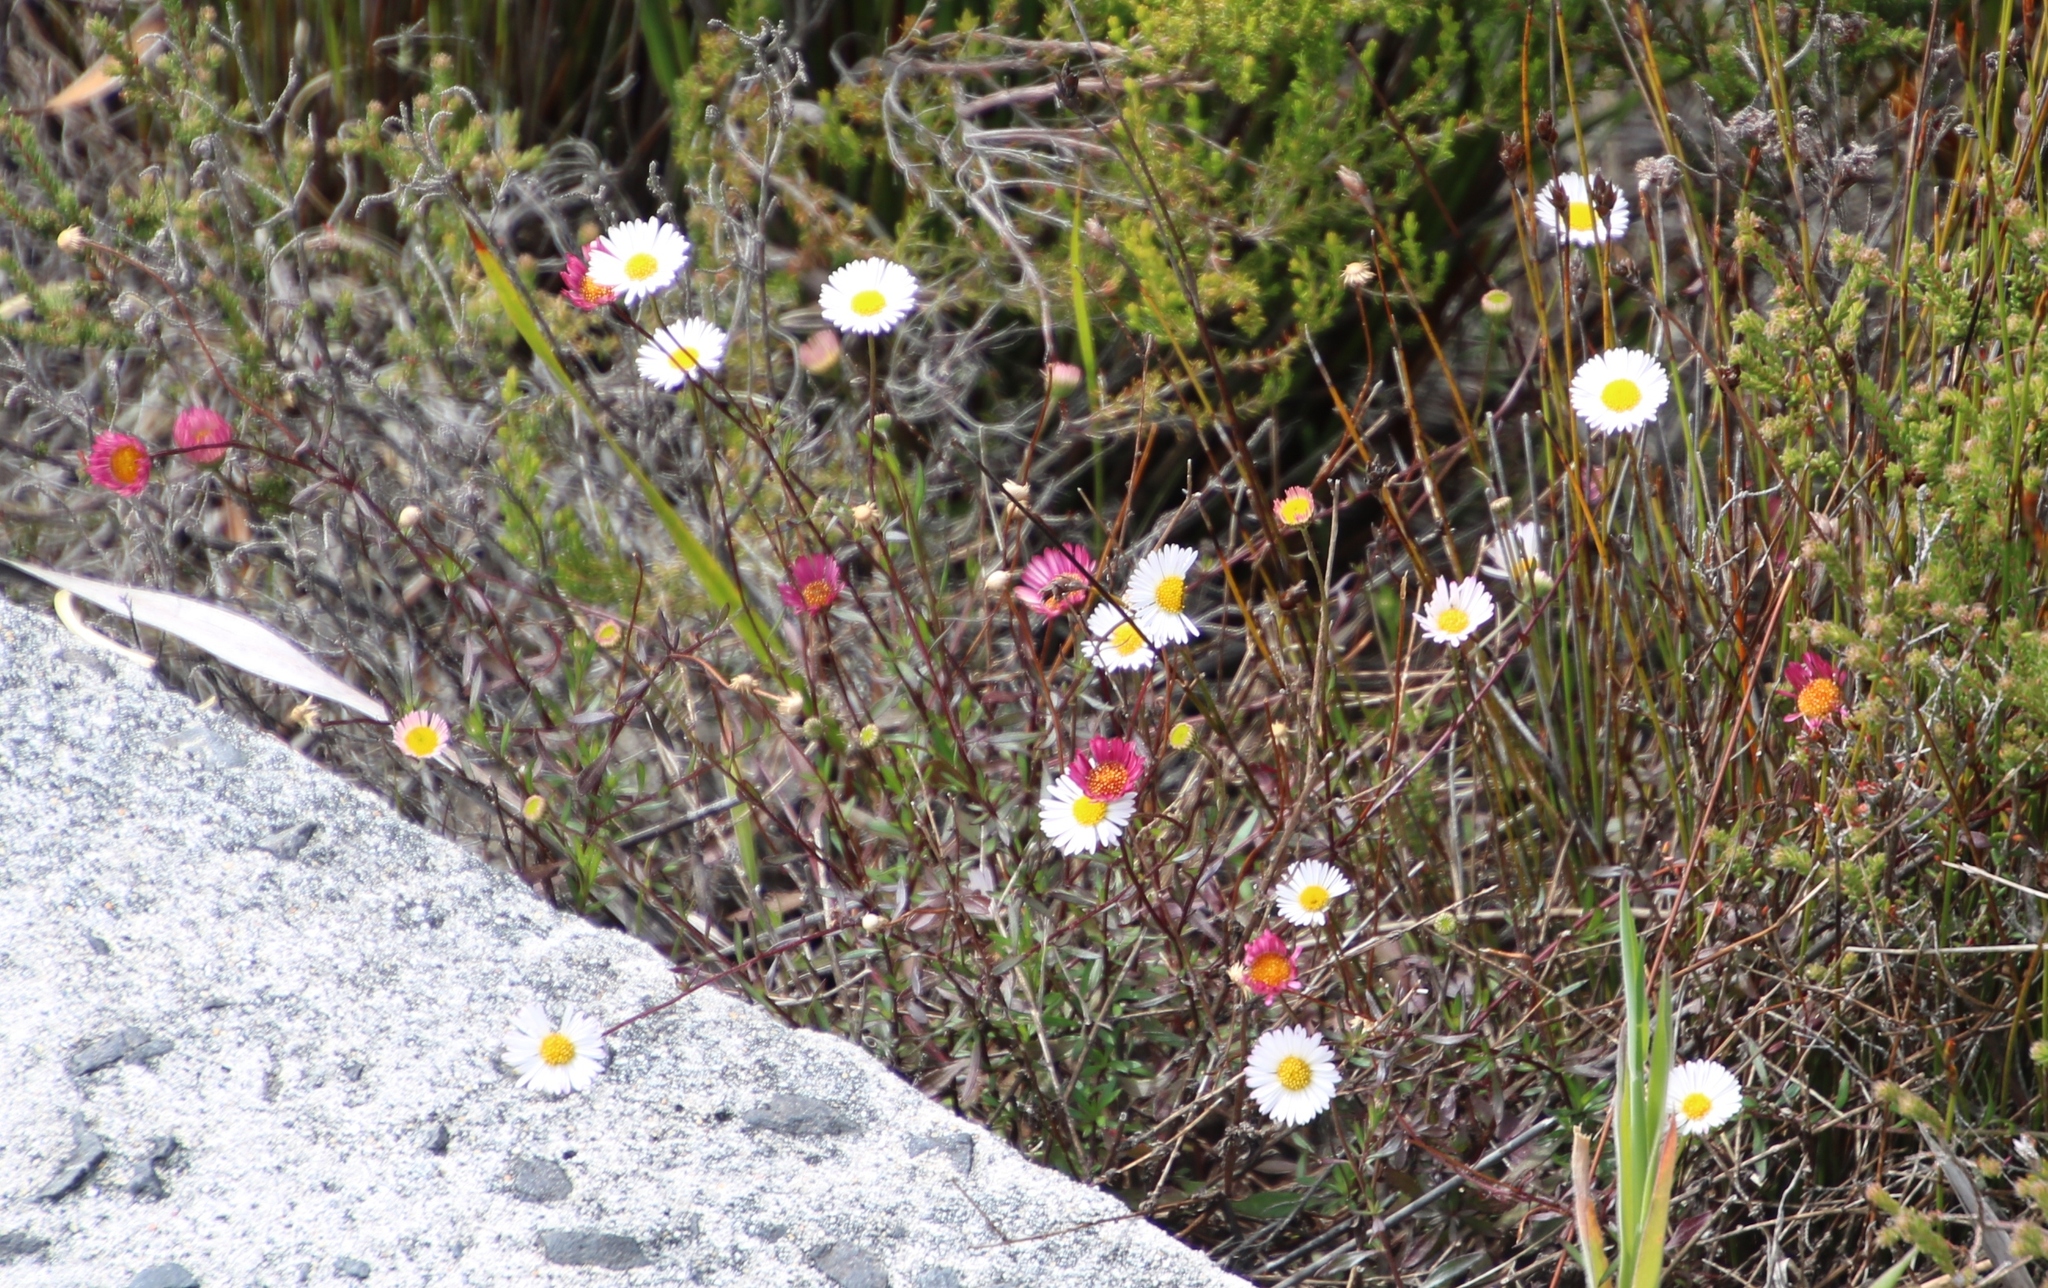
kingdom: Plantae
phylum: Tracheophyta
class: Magnoliopsida
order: Asterales
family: Asteraceae
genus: Erigeron
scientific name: Erigeron karvinskianus
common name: Mexican fleabane
